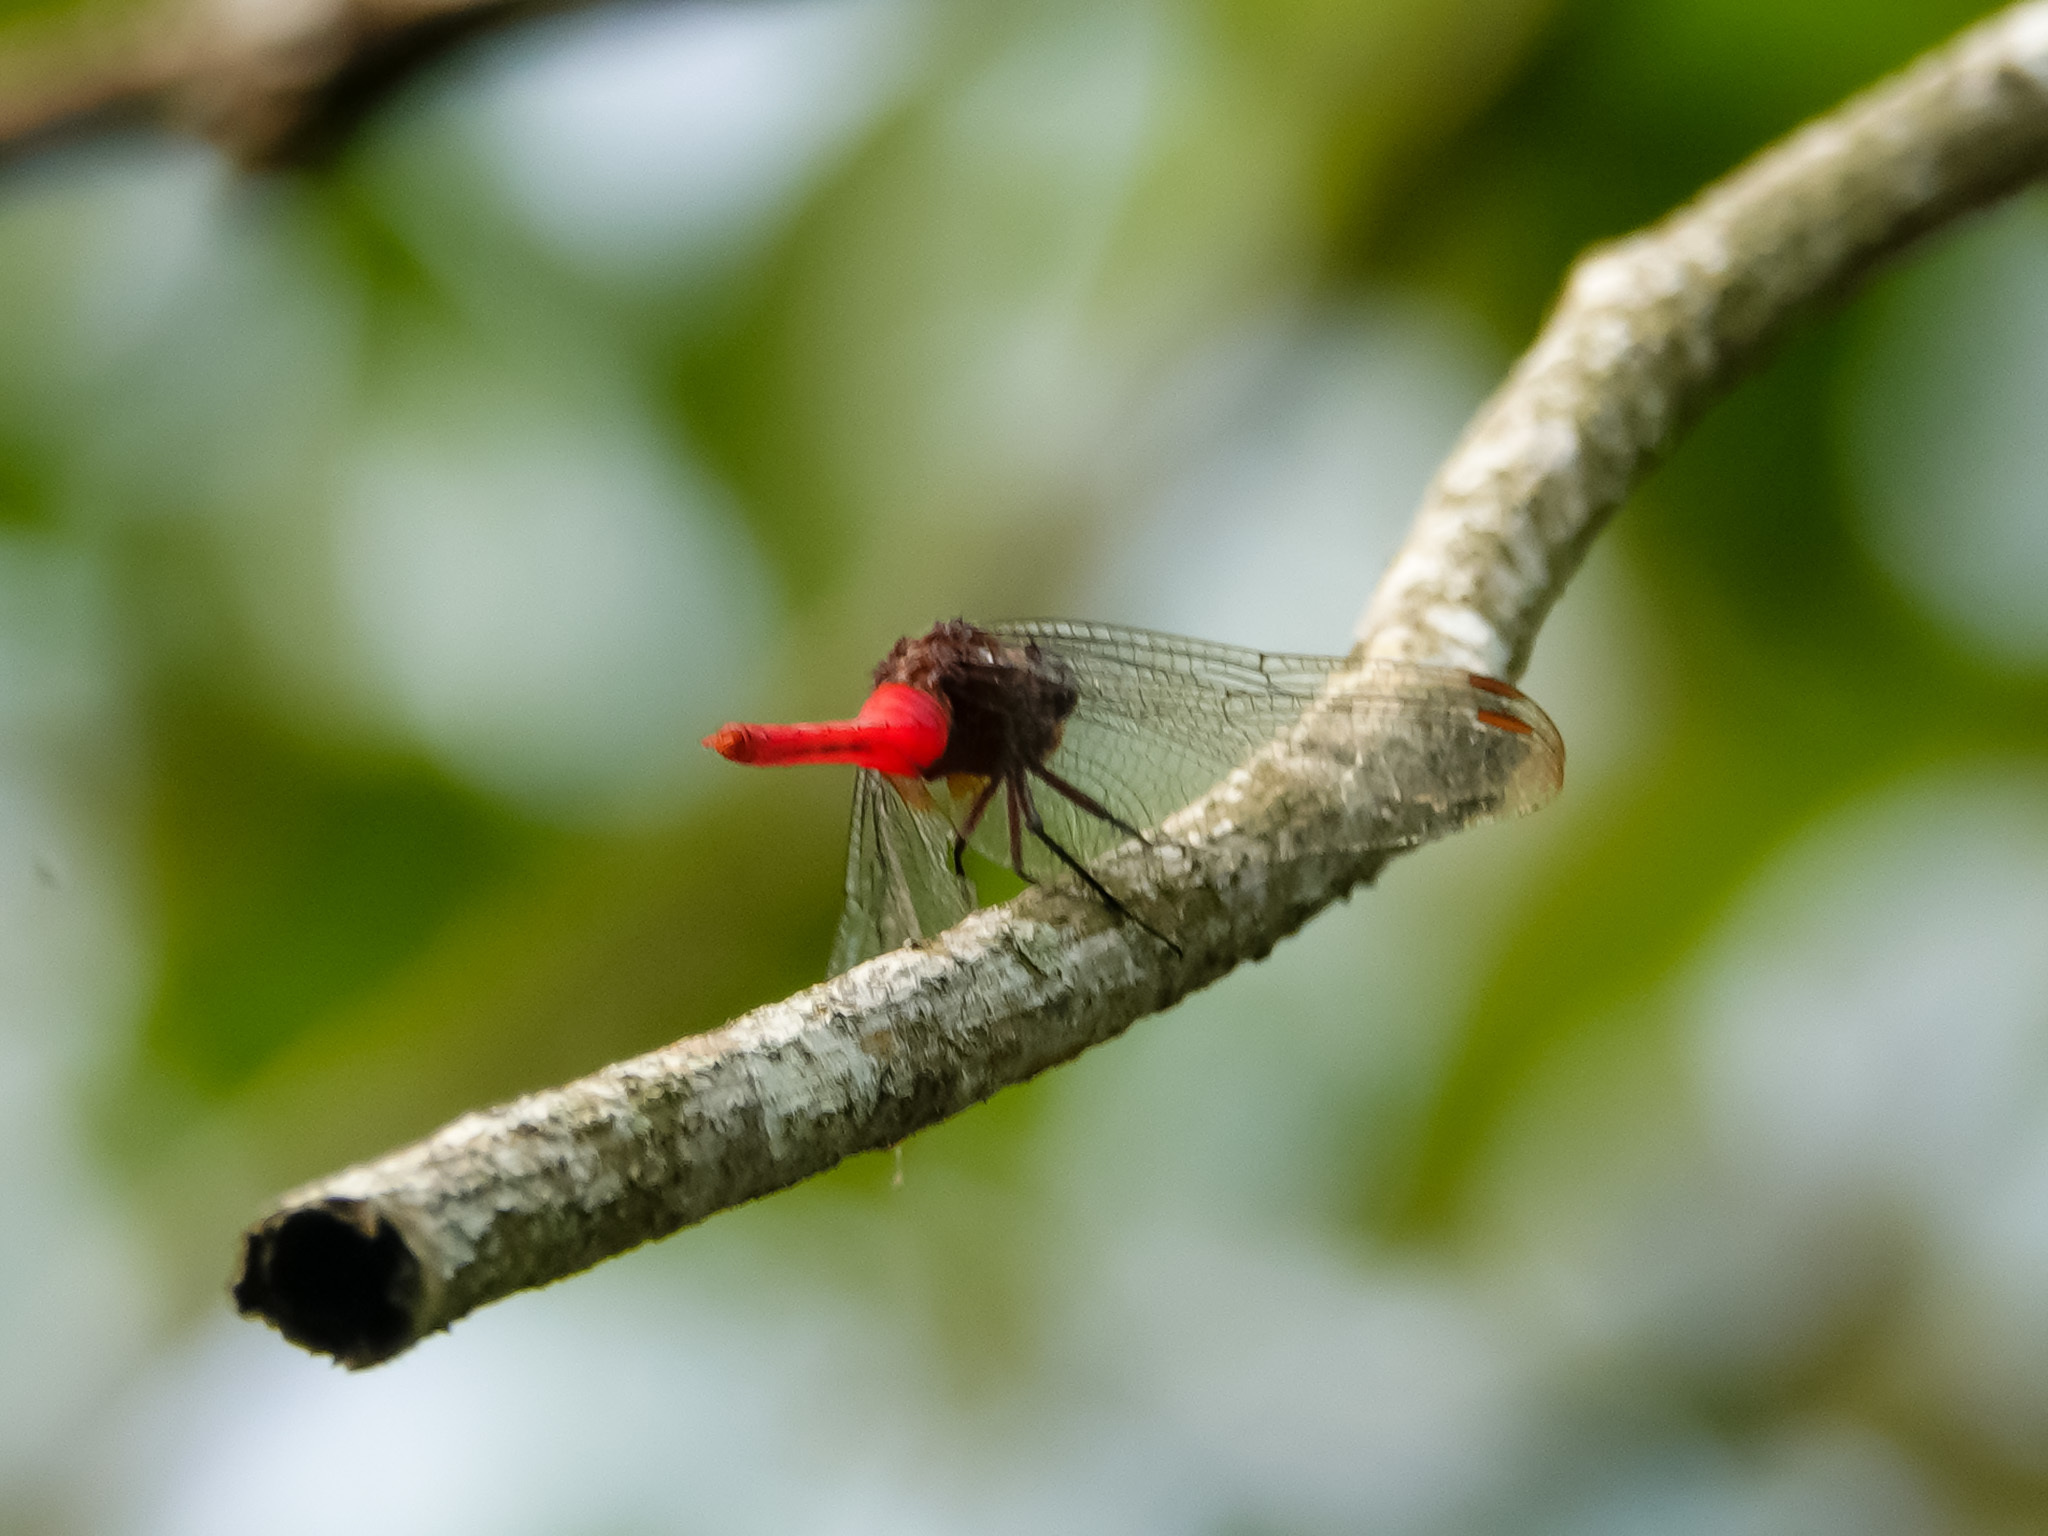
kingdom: Animalia
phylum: Arthropoda
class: Insecta
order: Odonata
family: Libellulidae
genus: Orthetrum
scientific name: Orthetrum chrysis
